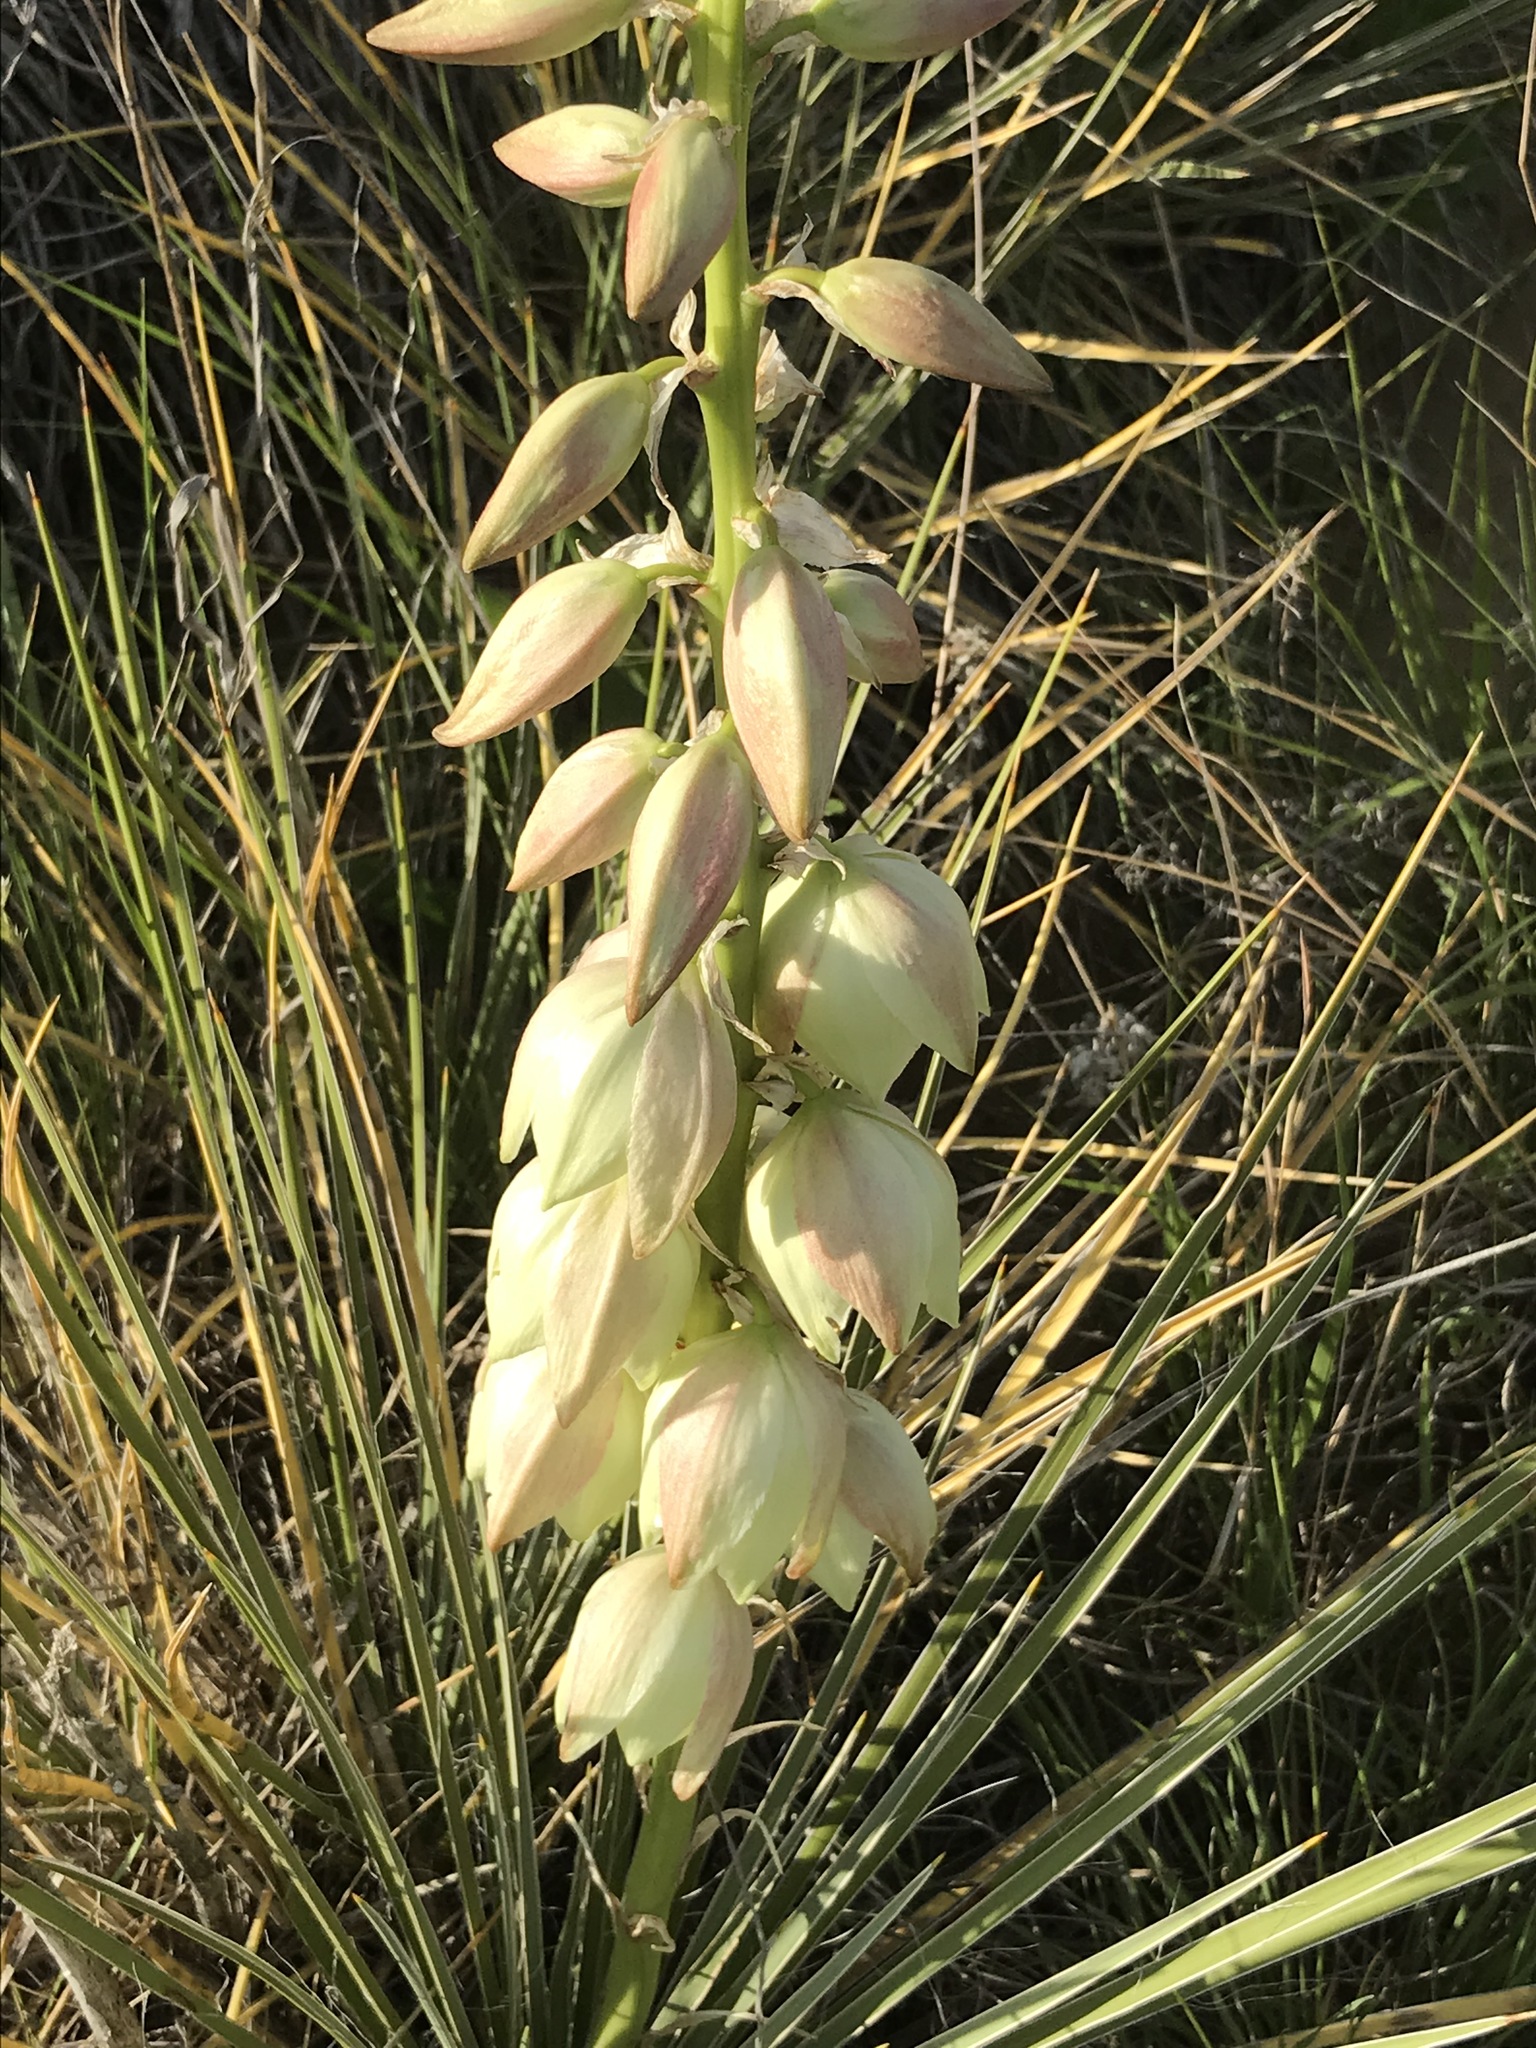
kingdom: Plantae
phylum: Tracheophyta
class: Liliopsida
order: Asparagales
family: Asparagaceae
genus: Yucca
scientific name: Yucca glauca
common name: Great plains yucca
